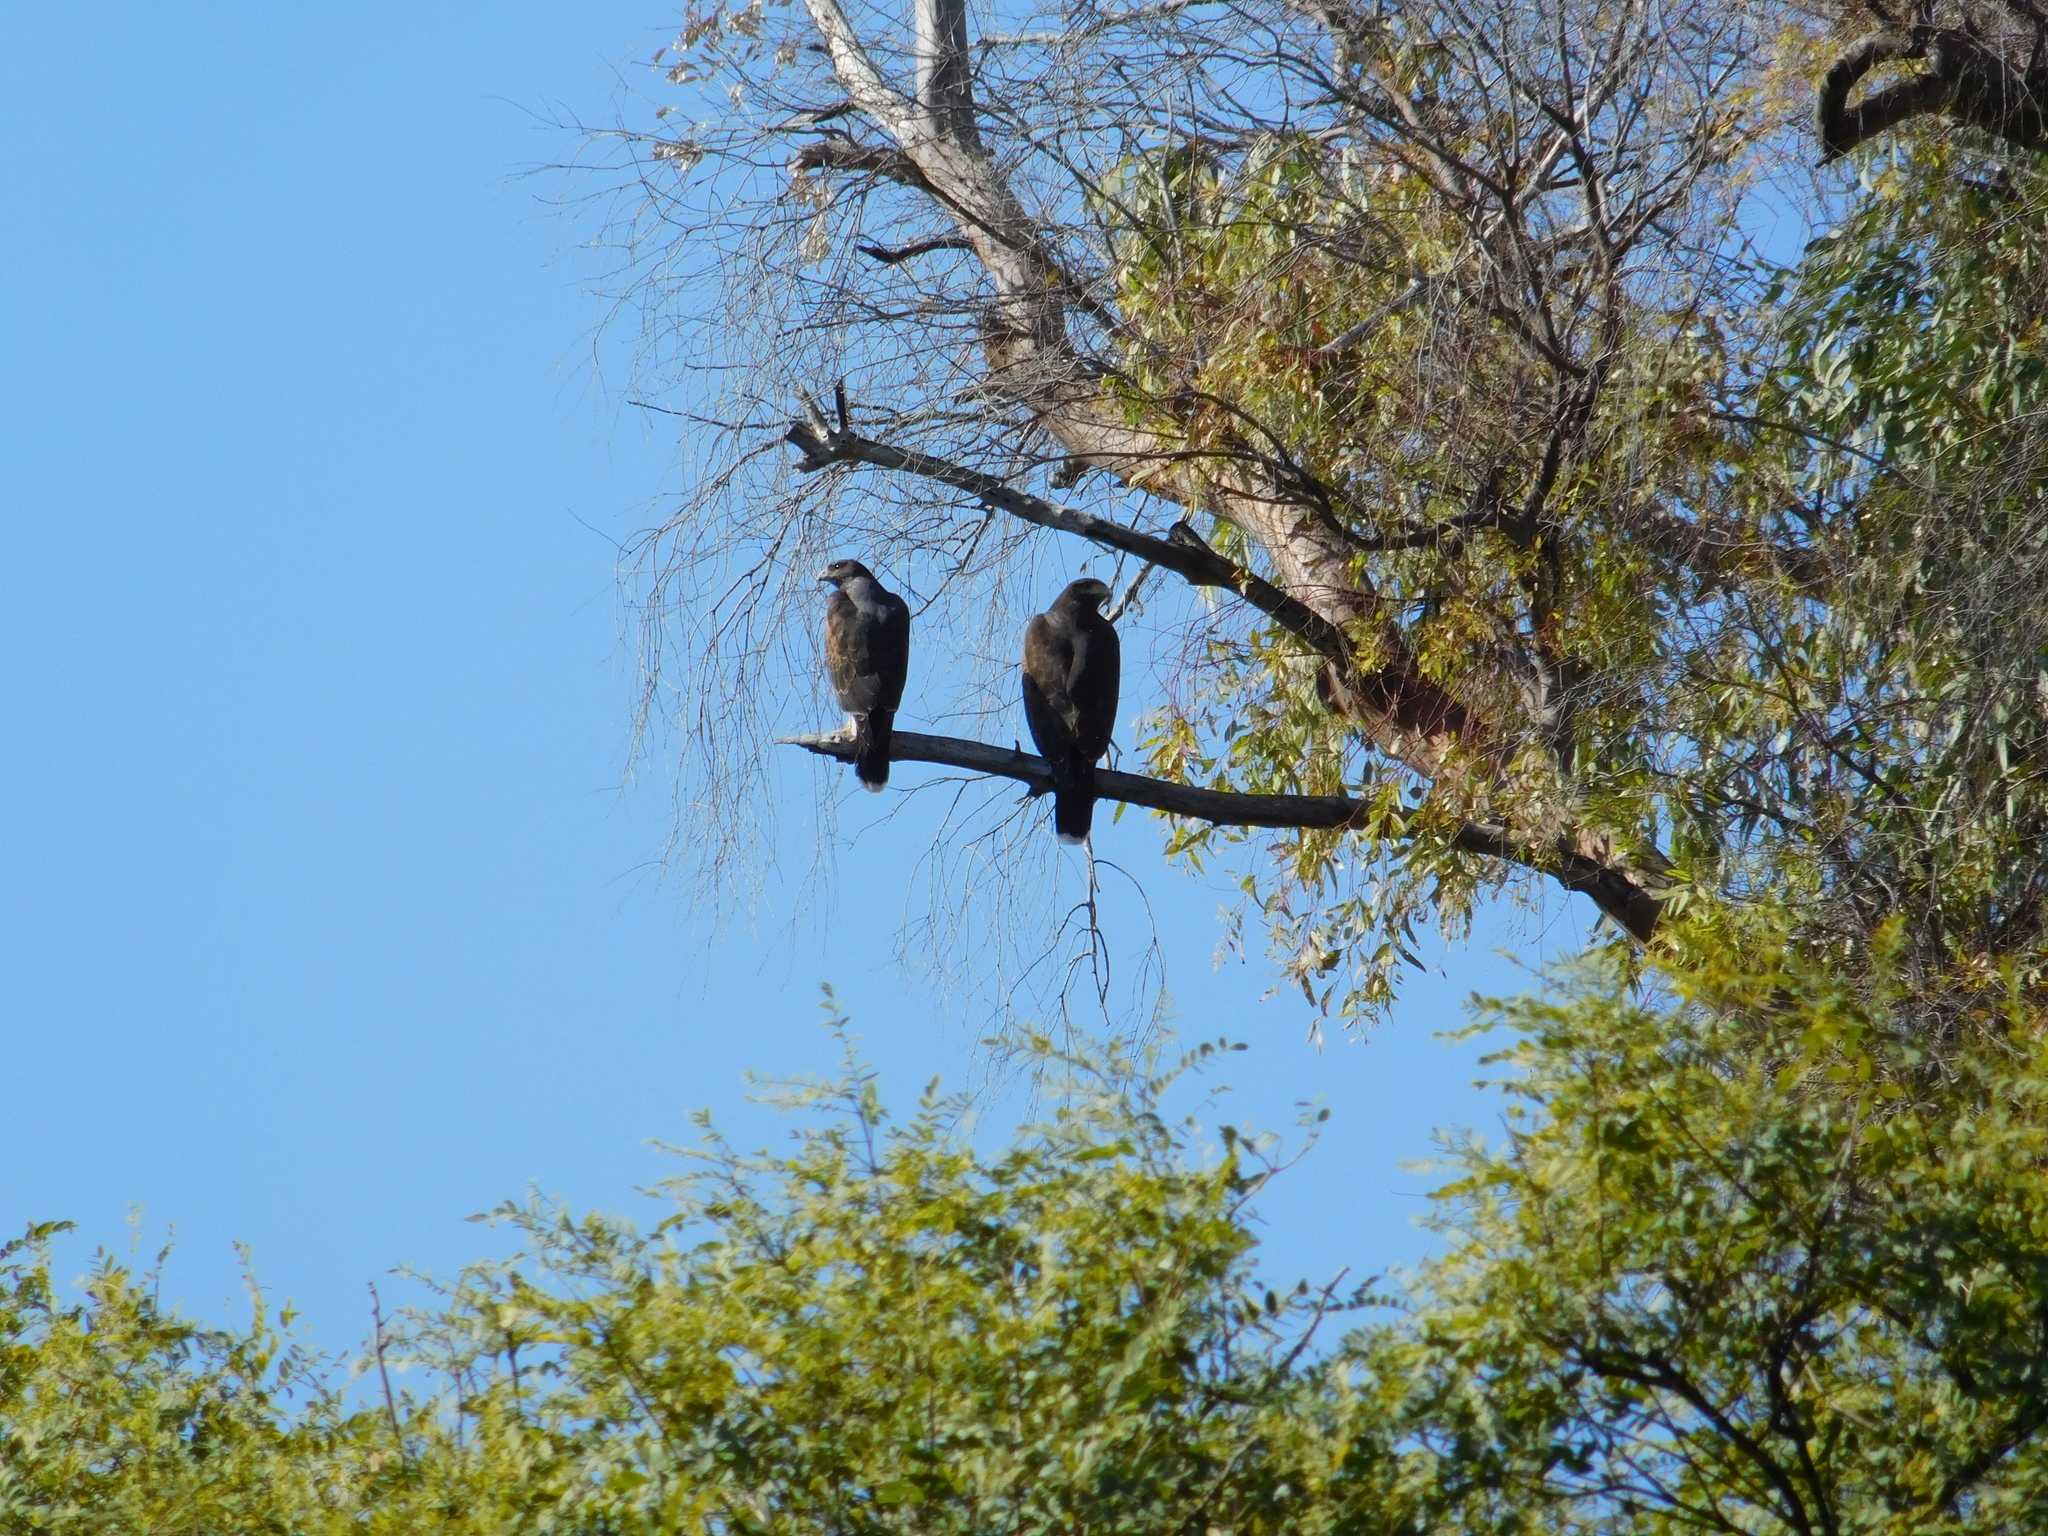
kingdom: Animalia
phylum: Chordata
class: Aves
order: Accipitriformes
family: Accipitridae
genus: Parabuteo
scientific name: Parabuteo unicinctus
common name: Harris's hawk
